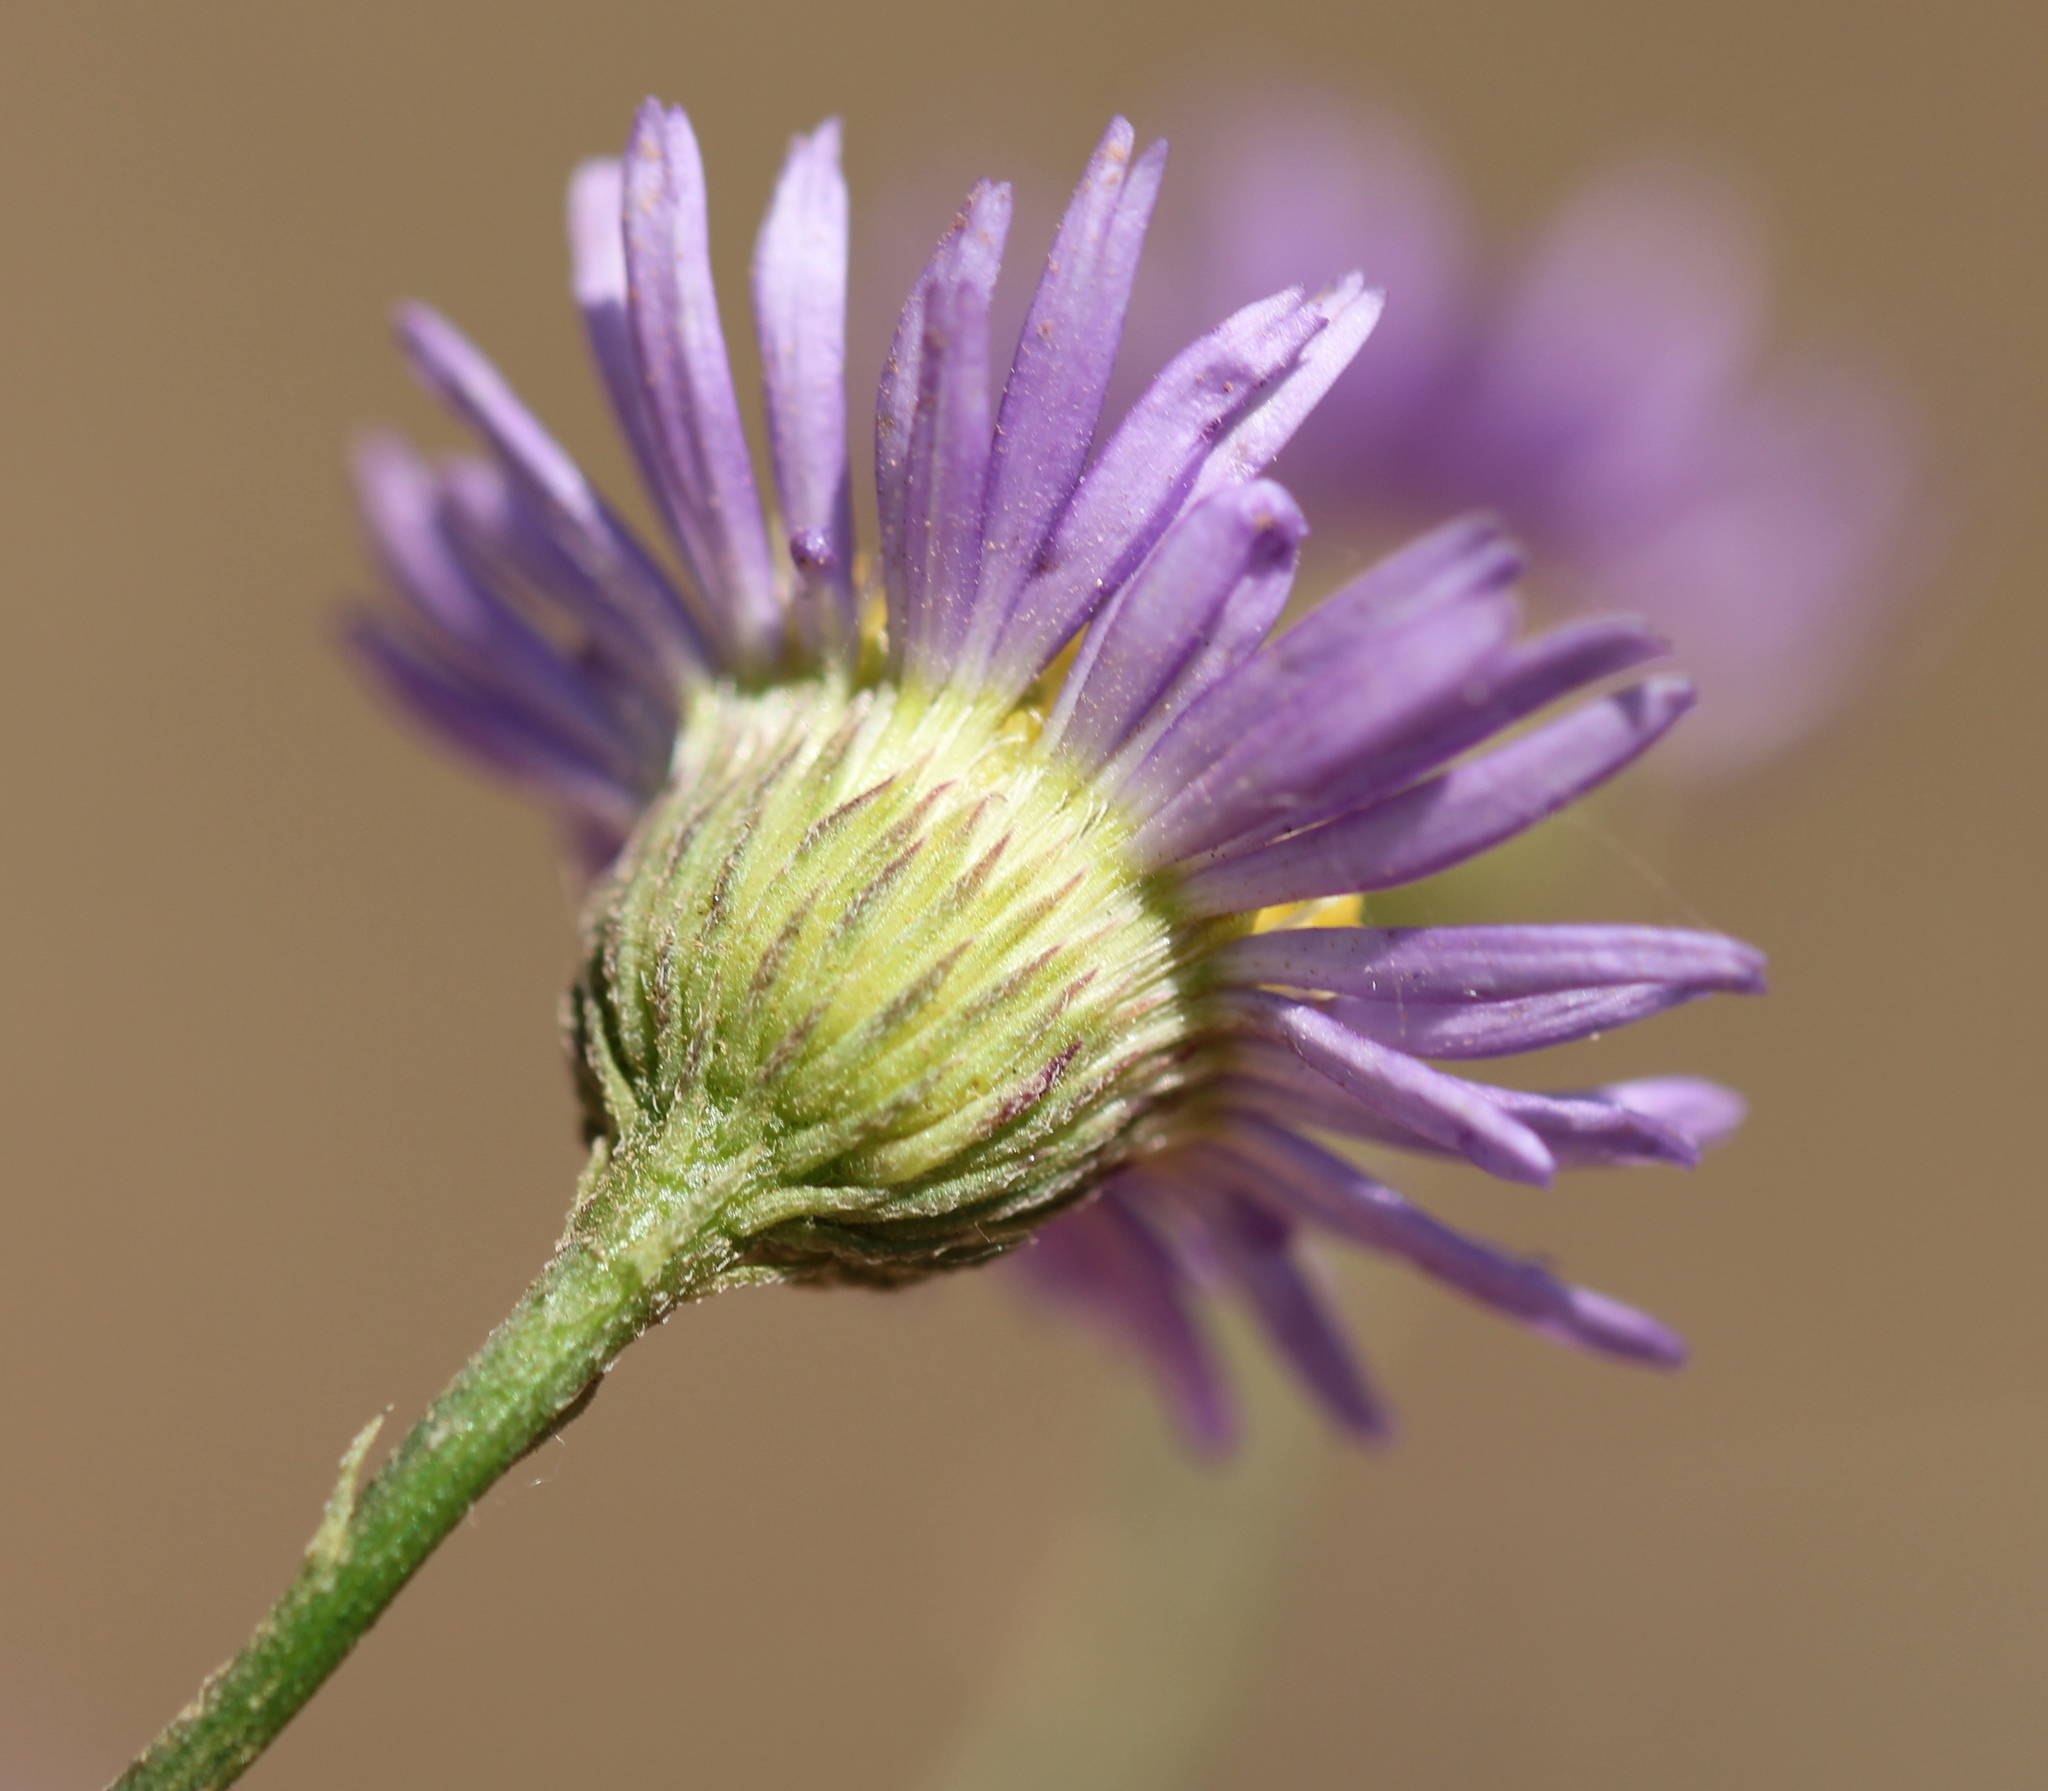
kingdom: Plantae
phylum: Tracheophyta
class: Magnoliopsida
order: Asterales
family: Asteraceae
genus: Erigeron
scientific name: Erigeron foliosus
